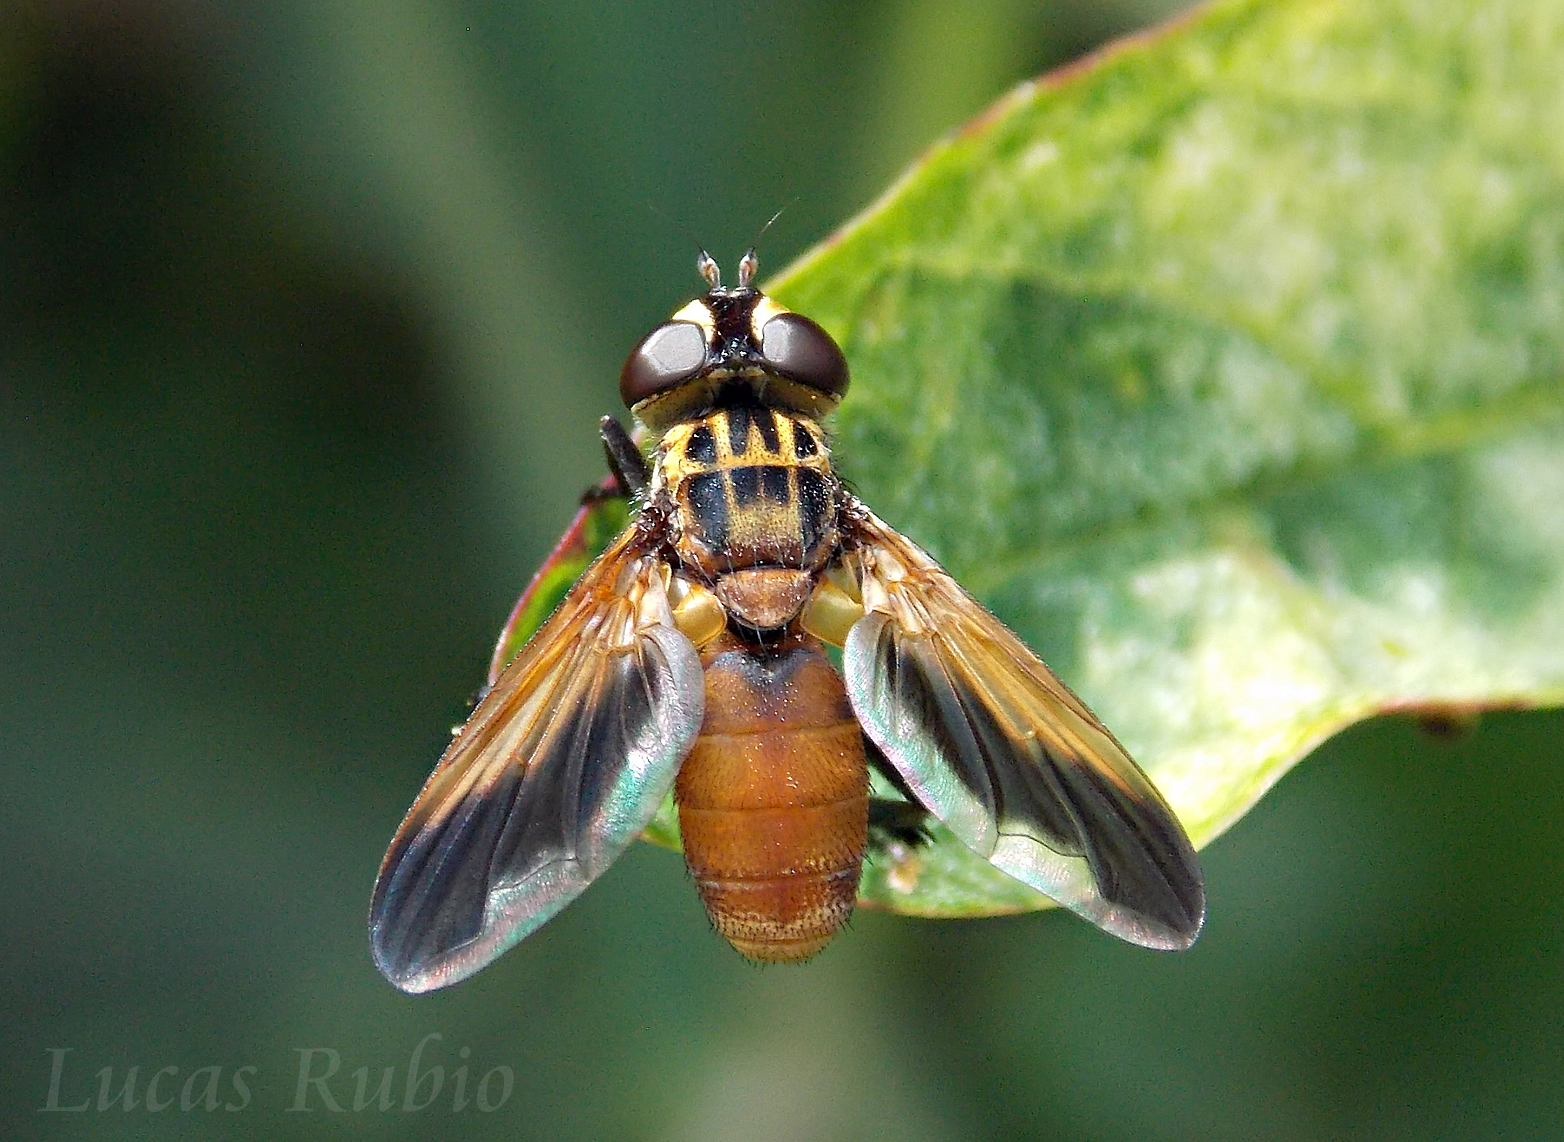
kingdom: Animalia
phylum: Arthropoda
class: Insecta
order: Diptera
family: Tachinidae
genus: Trichopoda
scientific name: Trichopoda pennipes
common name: Tachinid fly
